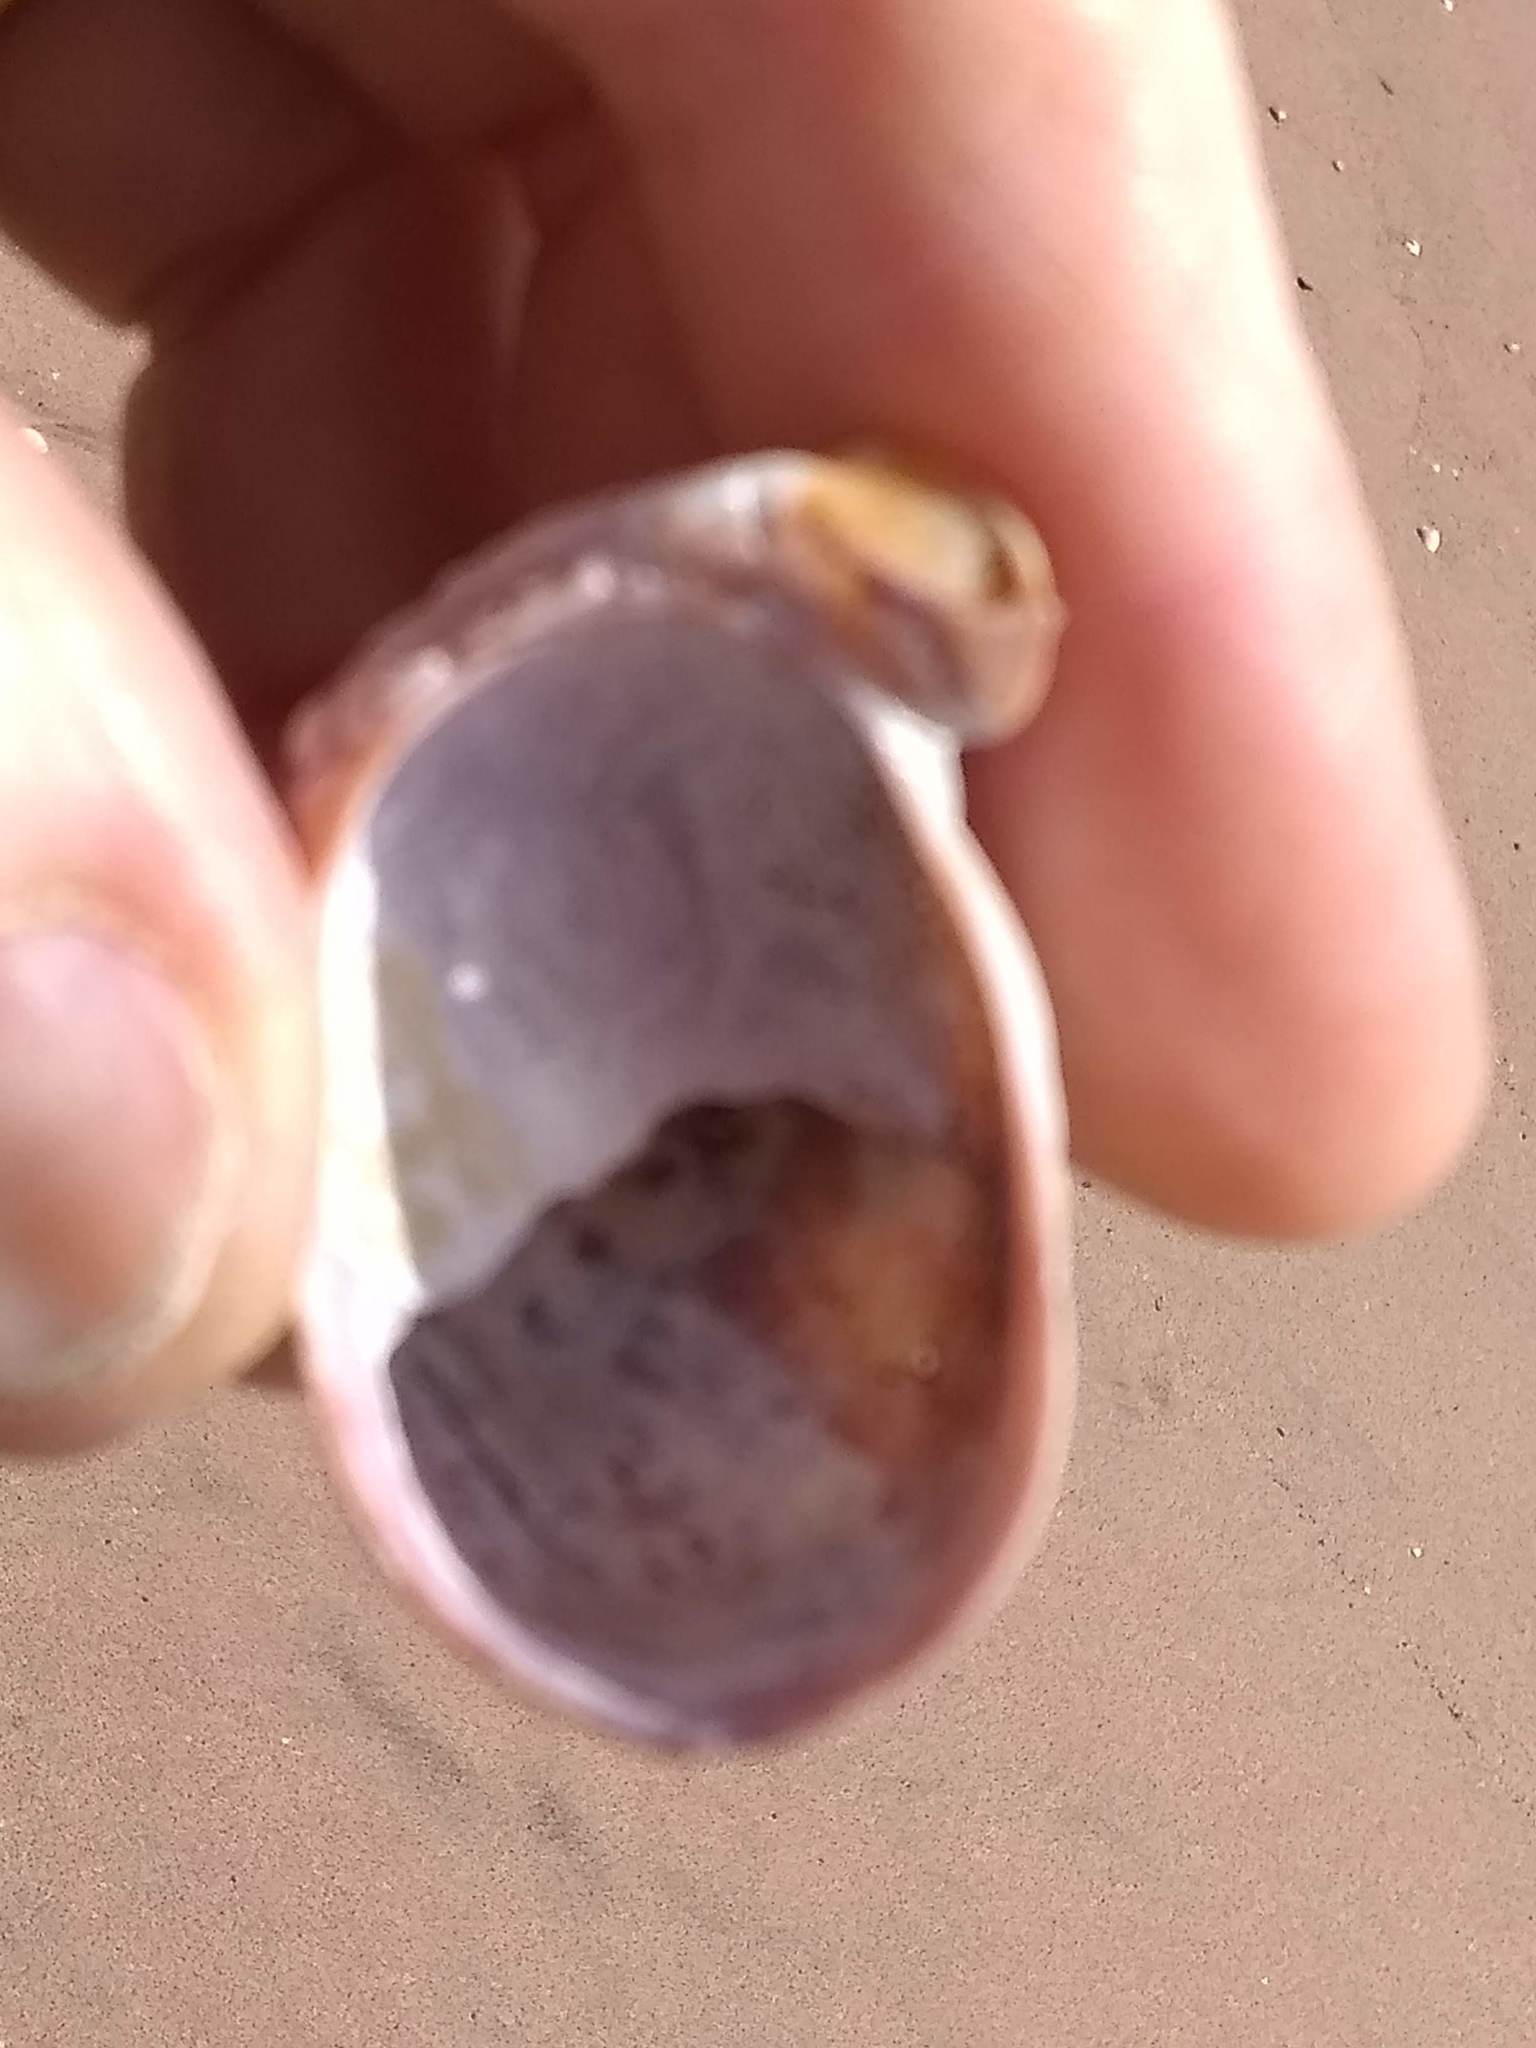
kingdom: Animalia
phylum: Mollusca
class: Gastropoda
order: Littorinimorpha
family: Calyptraeidae
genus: Crepidula
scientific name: Crepidula fornicata
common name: Slipper limpet
